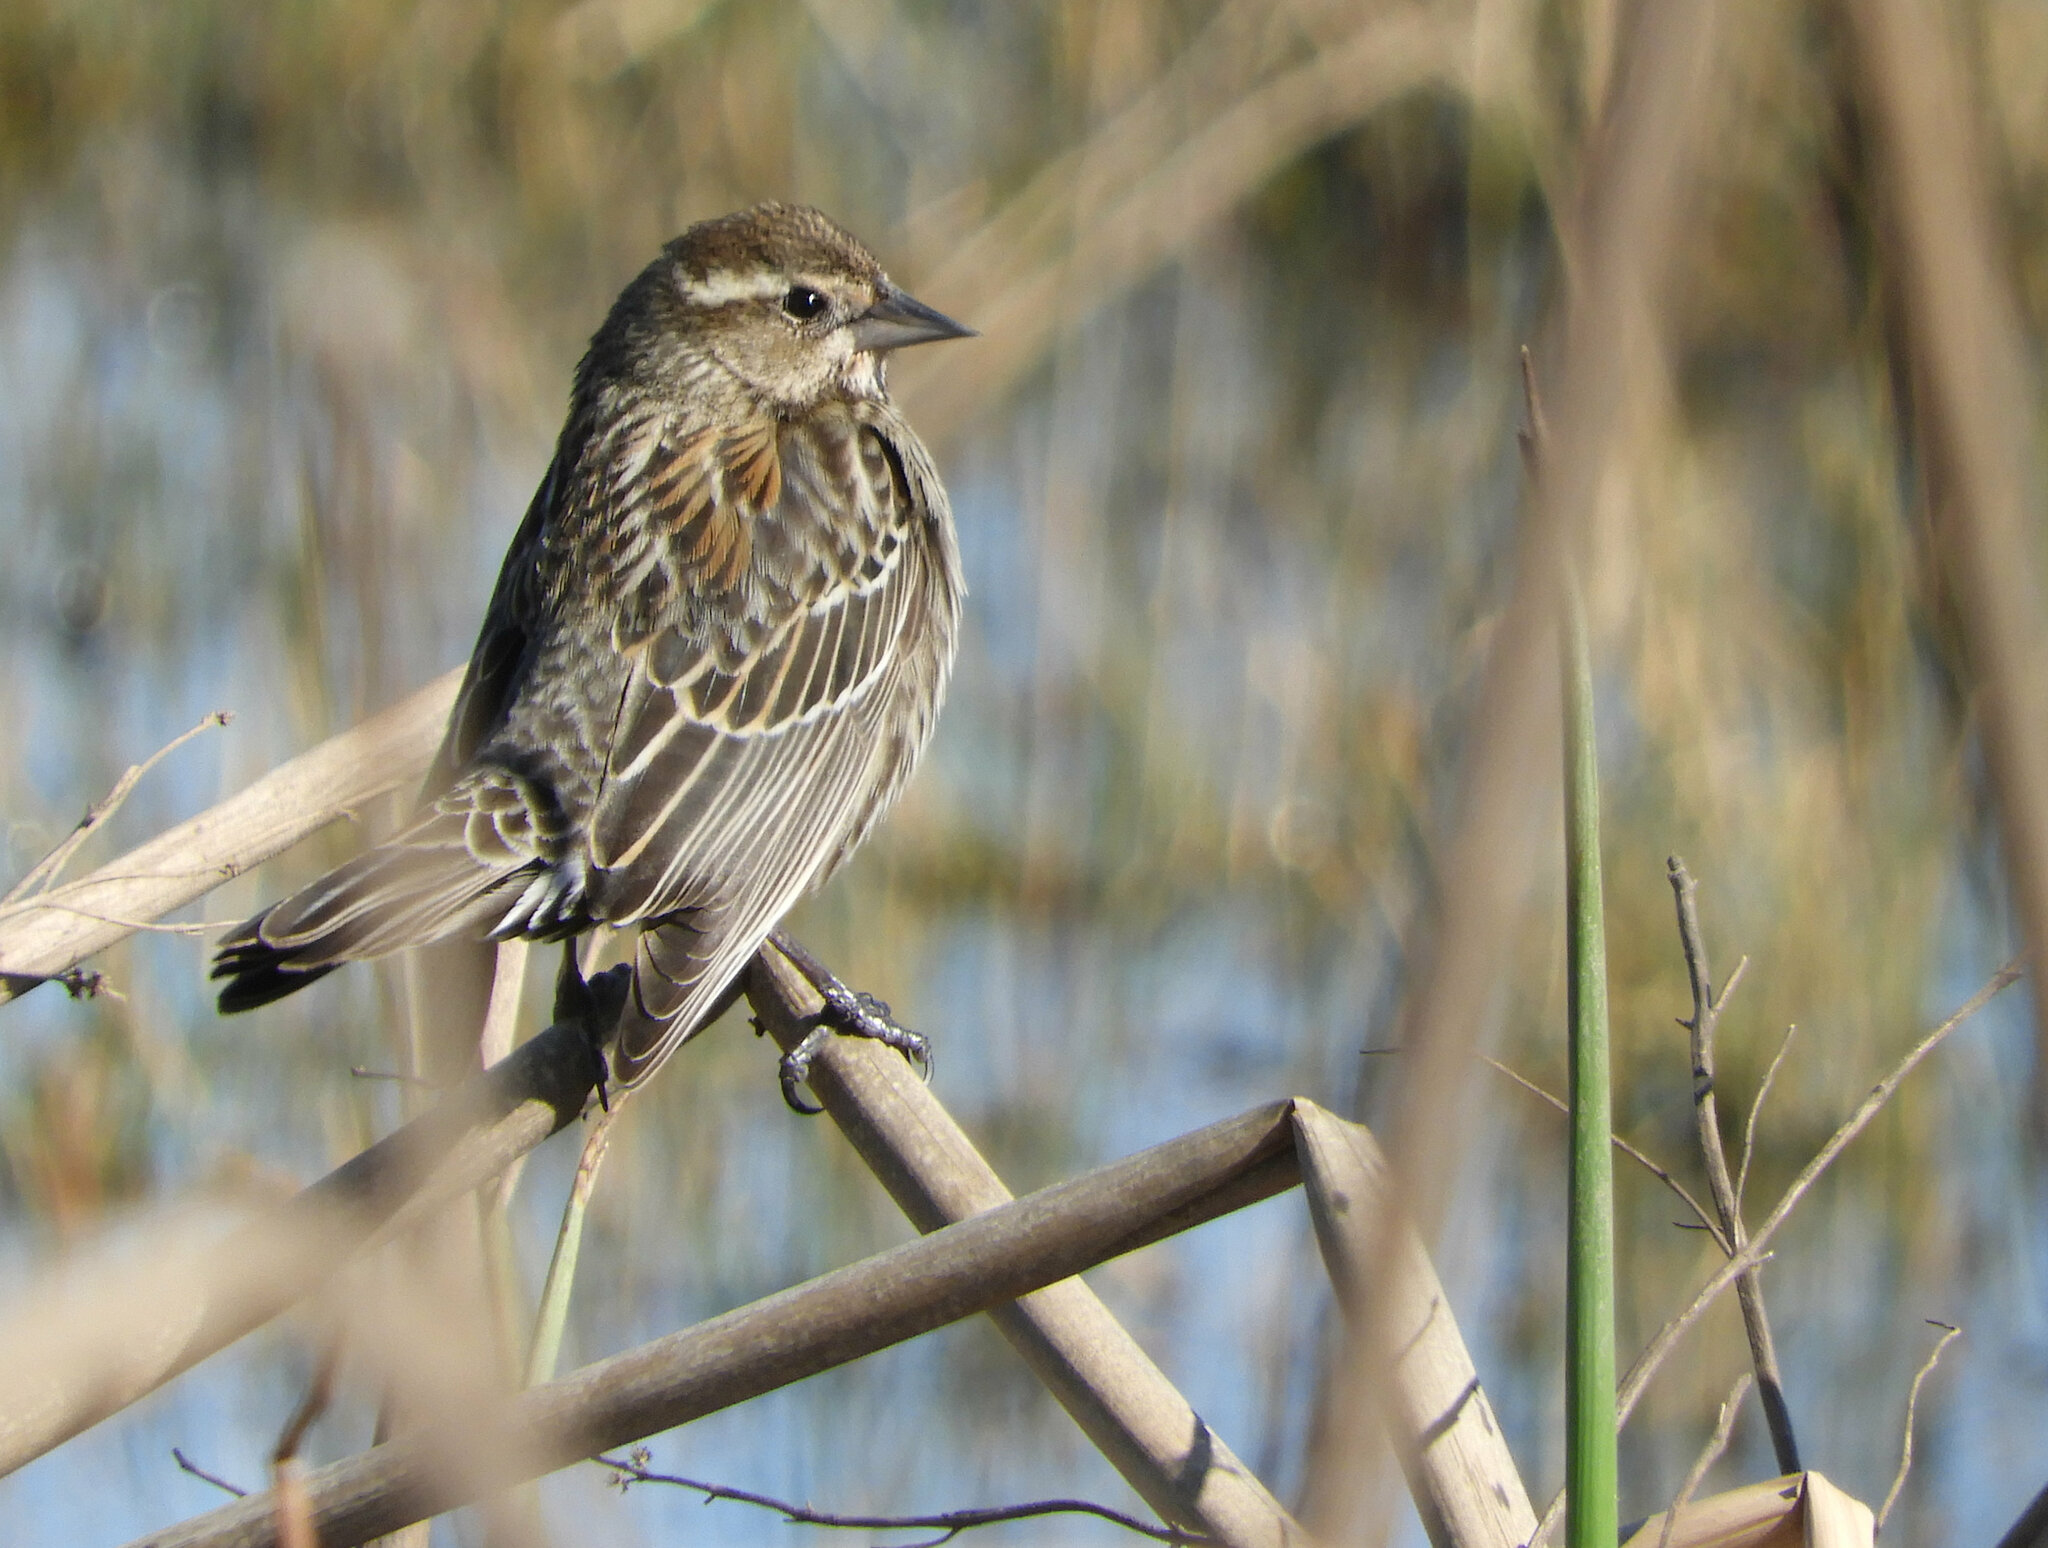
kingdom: Animalia
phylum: Chordata
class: Aves
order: Passeriformes
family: Icteridae
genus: Agelaius
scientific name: Agelaius phoeniceus
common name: Red-winged blackbird
